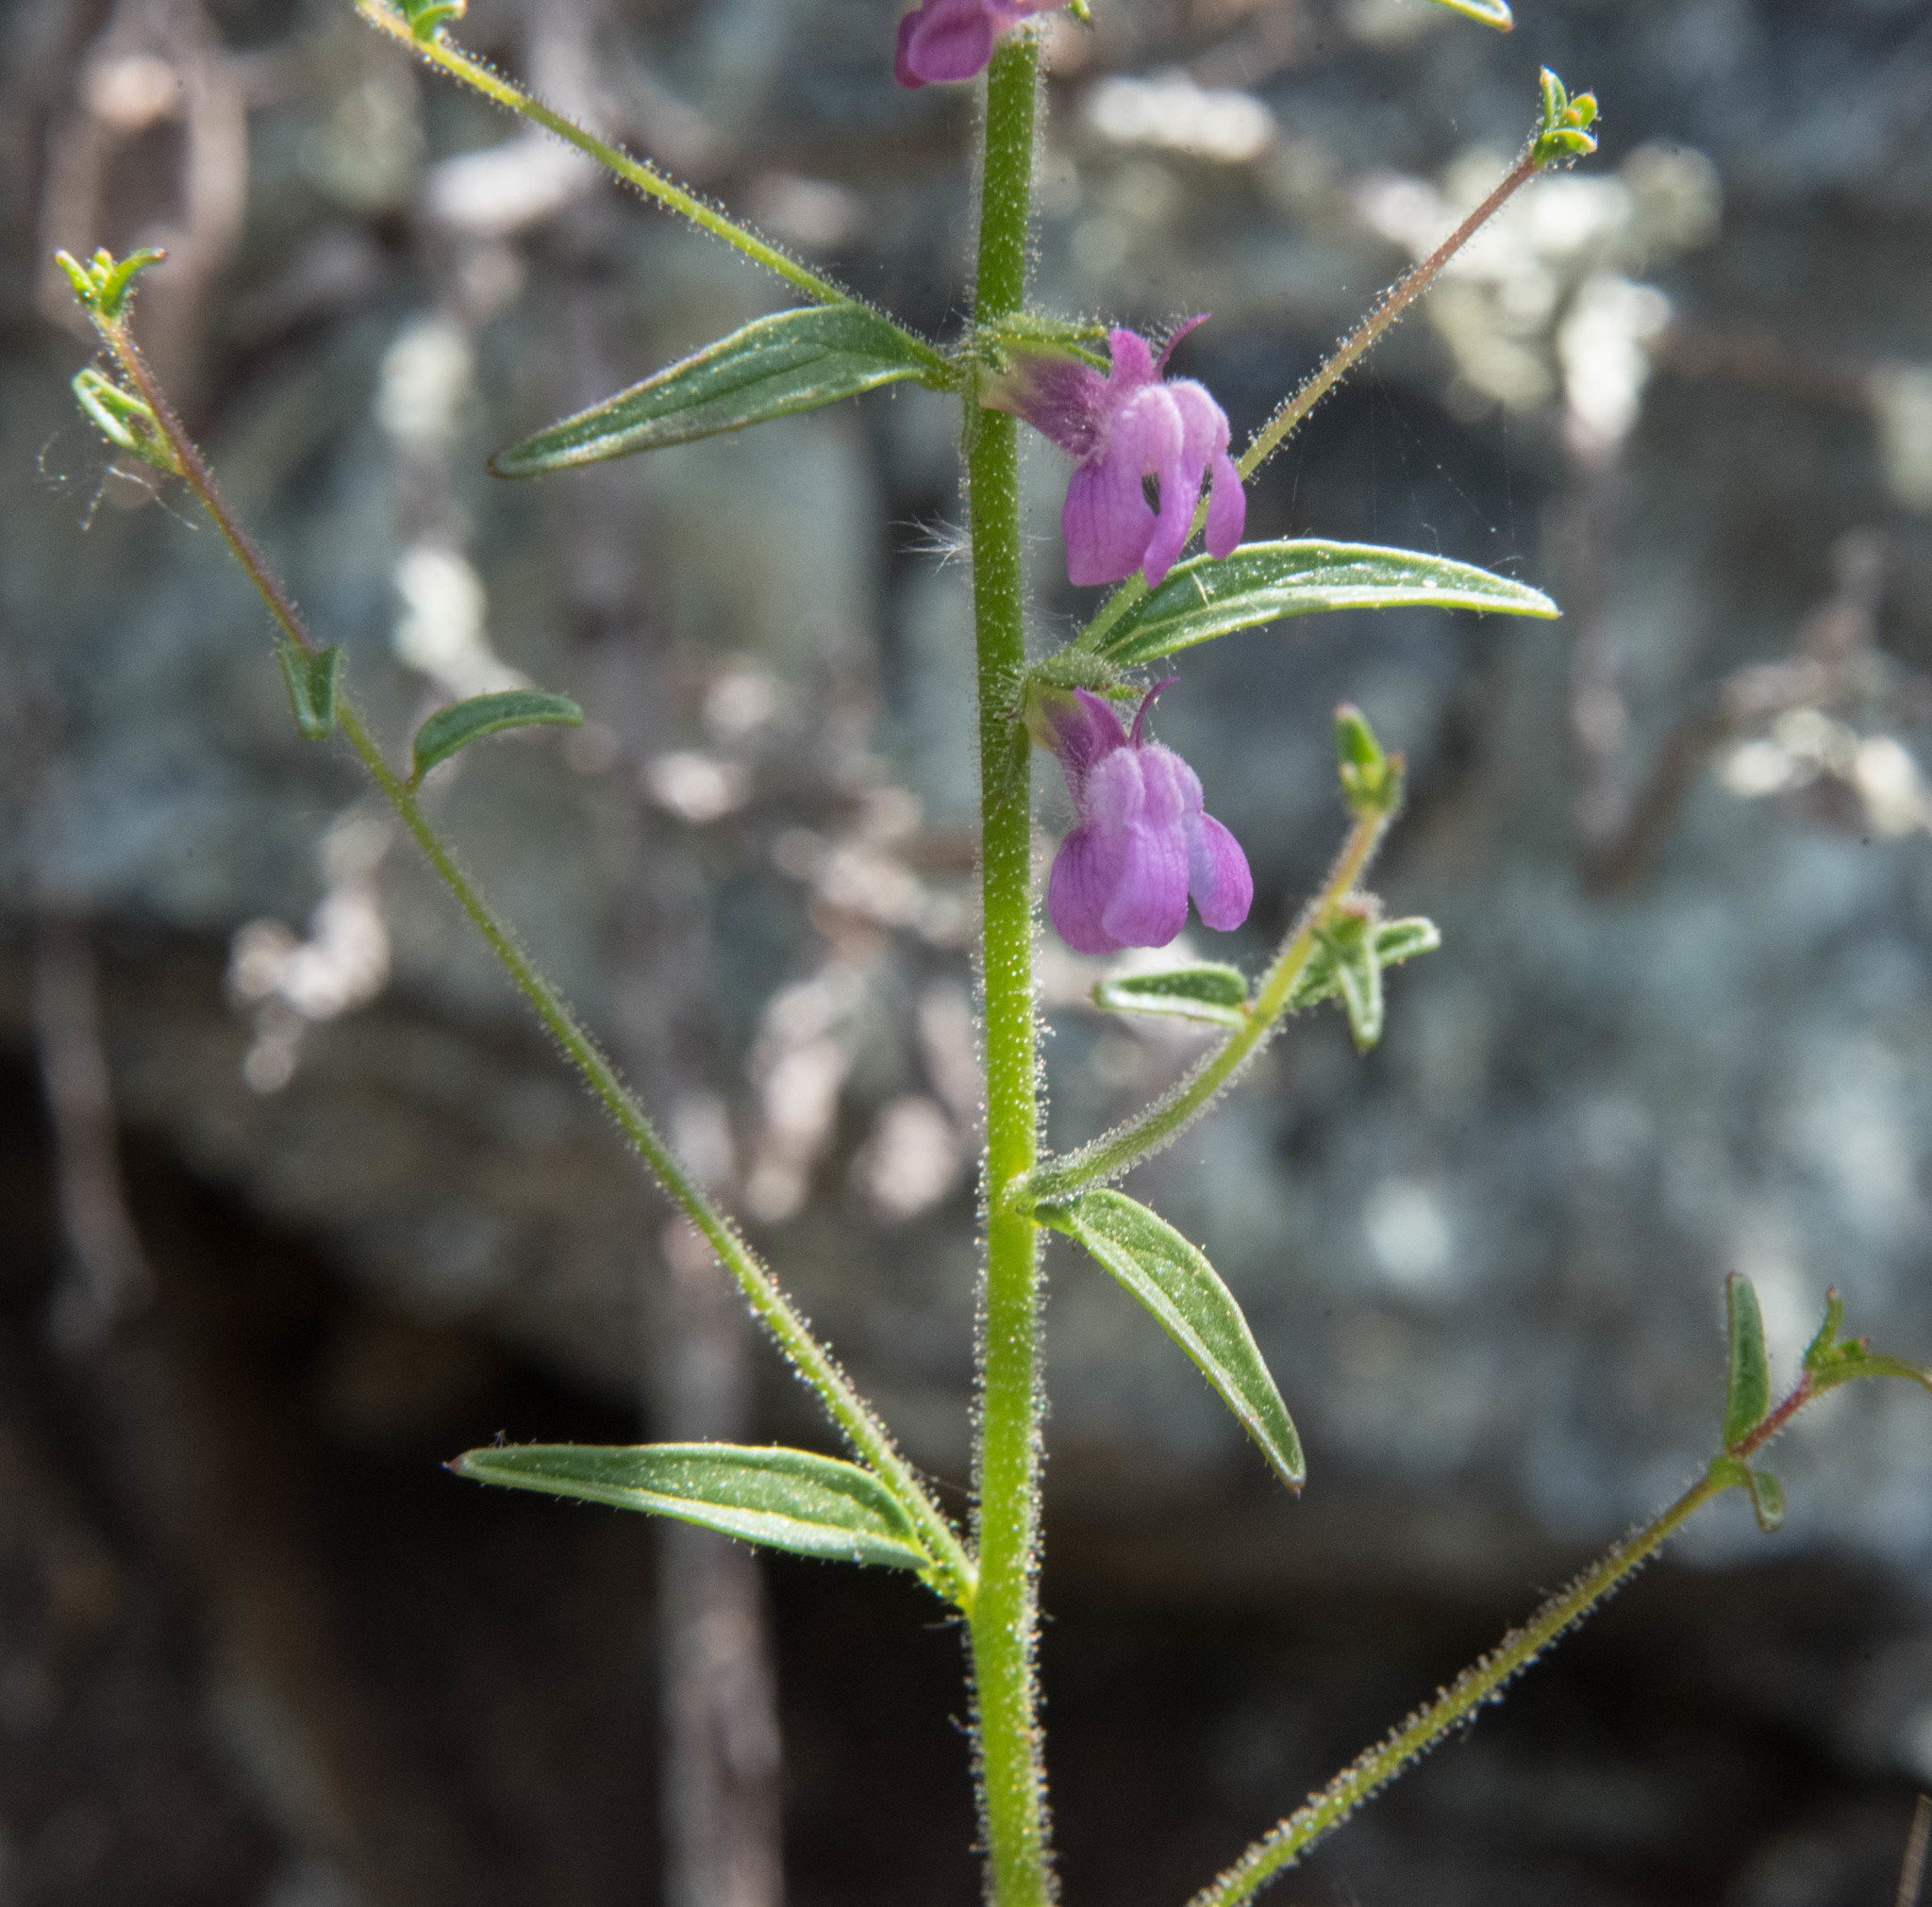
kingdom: Plantae
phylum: Tracheophyta
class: Magnoliopsida
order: Lamiales
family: Plantaginaceae
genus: Sairocarpus
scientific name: Sairocarpus vexillocalyculatus
